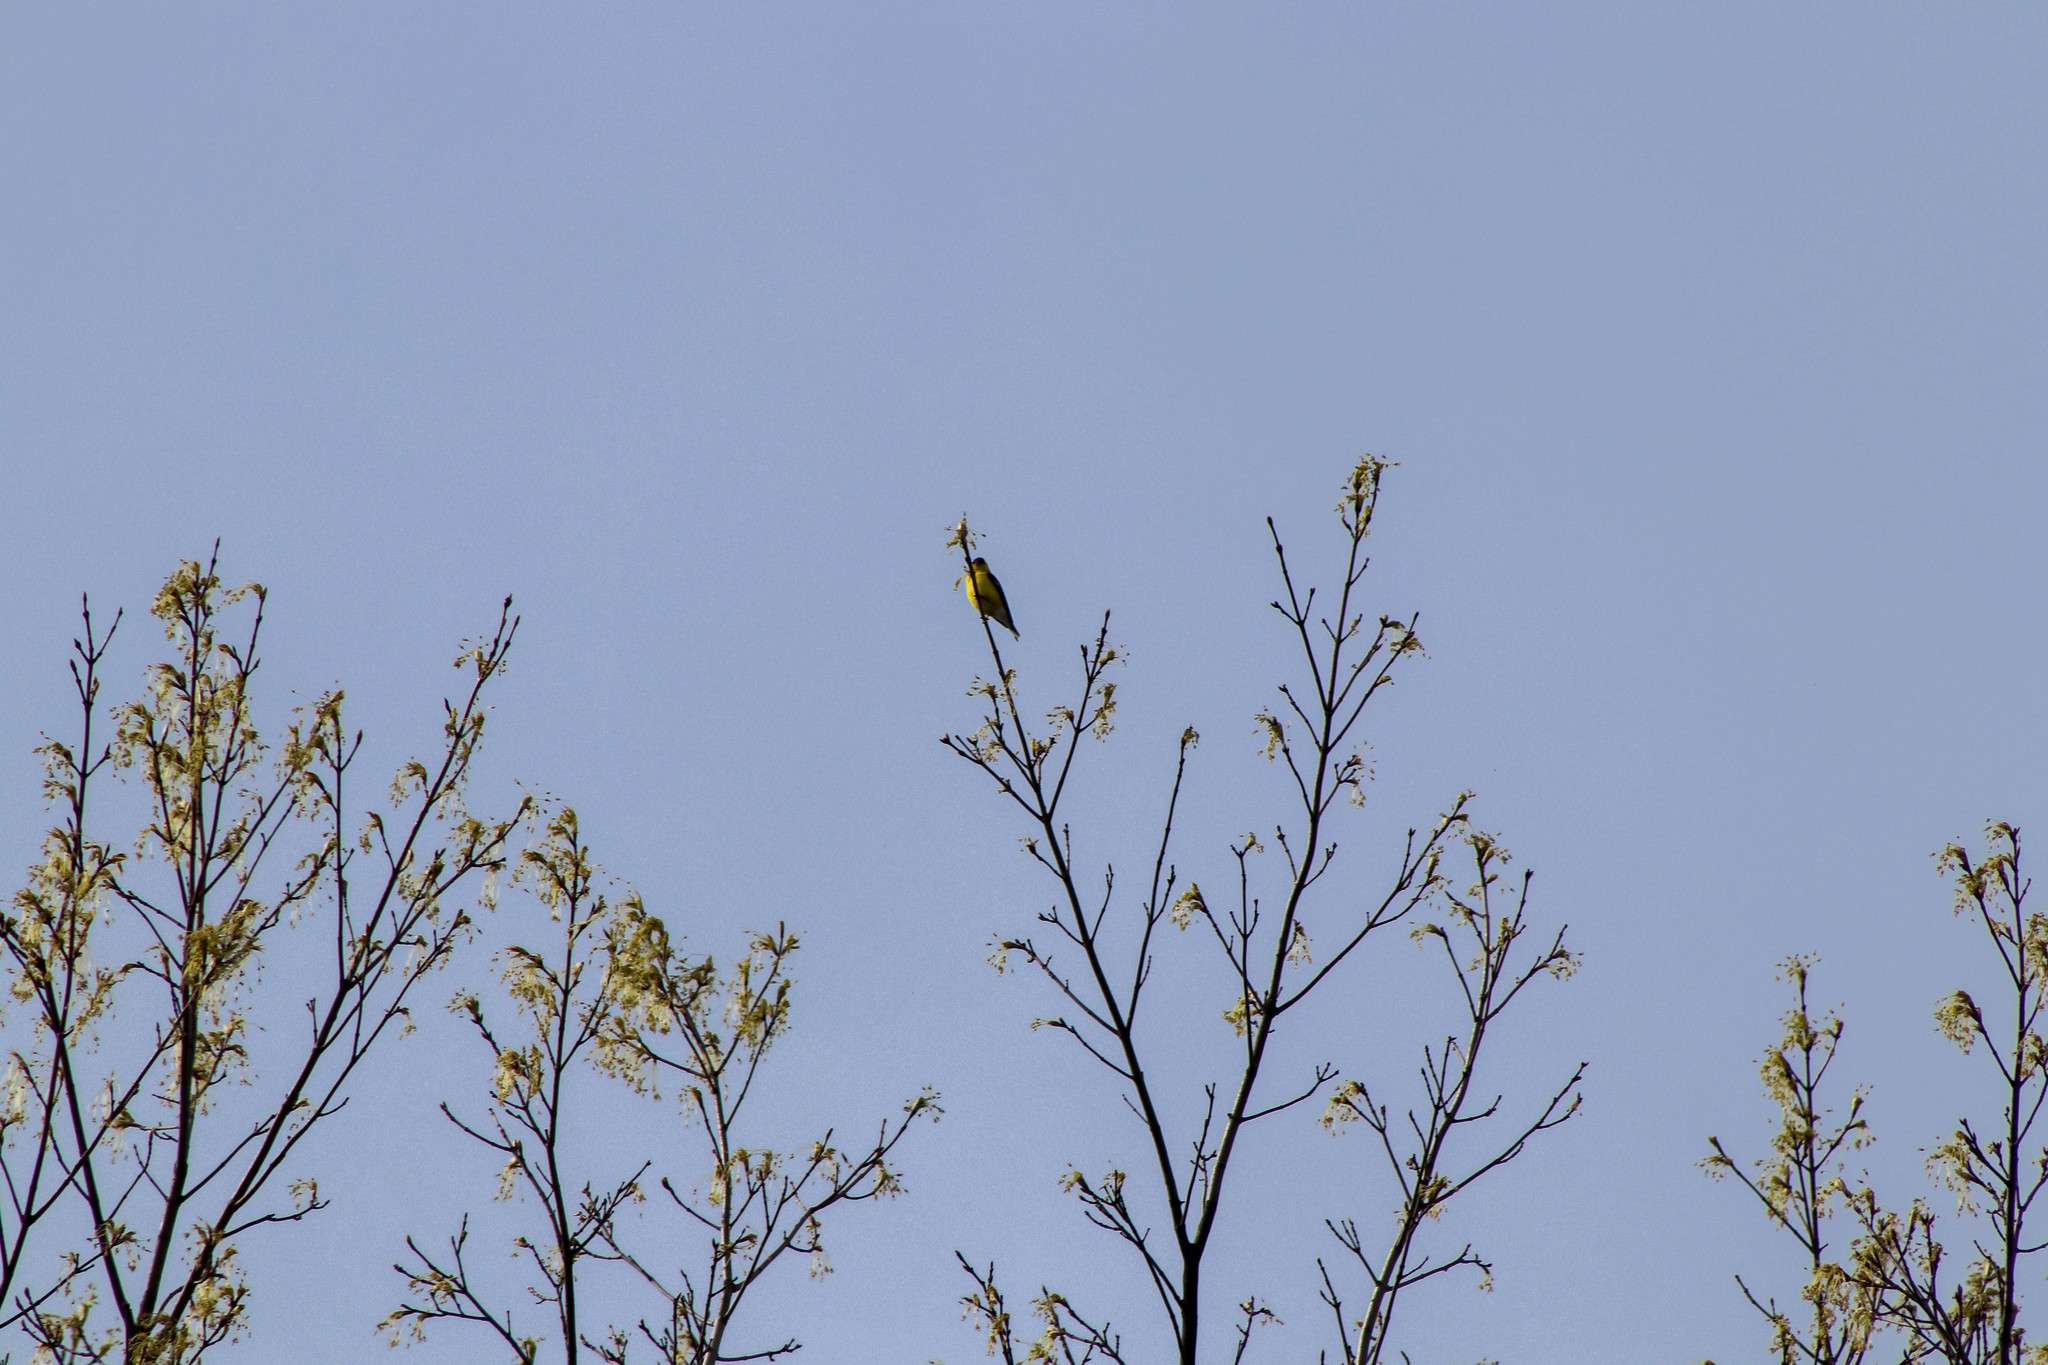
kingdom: Animalia
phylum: Chordata
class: Aves
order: Passeriformes
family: Fringillidae
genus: Spinus
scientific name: Spinus tristis
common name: American goldfinch
